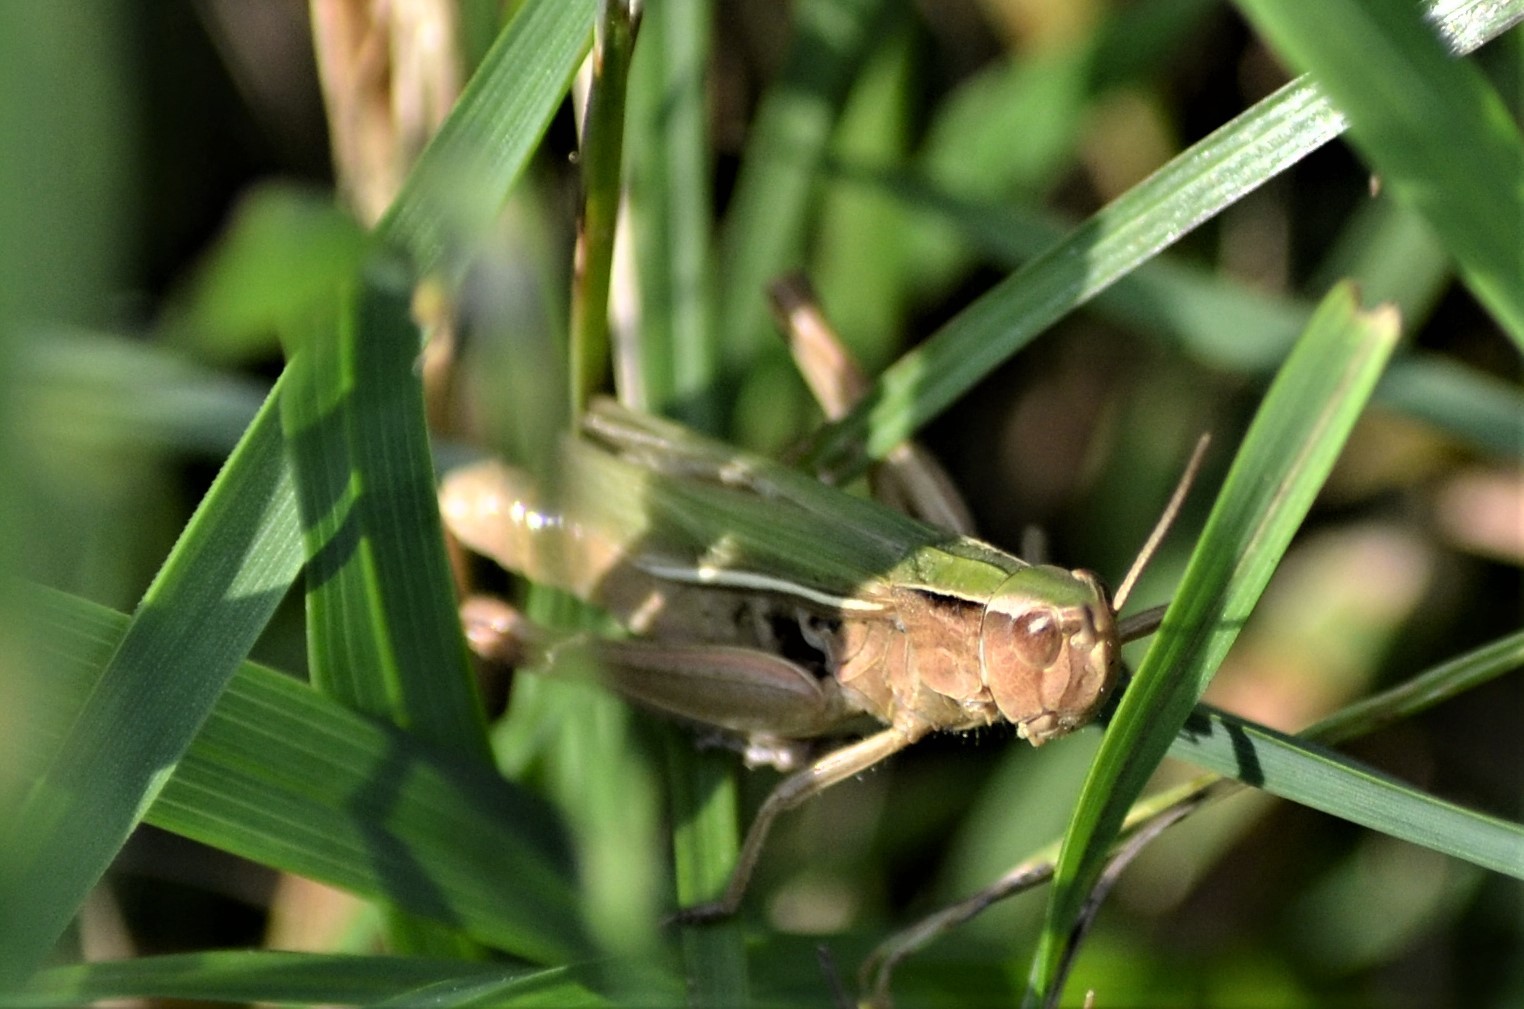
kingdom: Animalia
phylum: Arthropoda
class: Insecta
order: Orthoptera
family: Acrididae
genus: Chorthippus
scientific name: Chorthippus albomarginatus
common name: Lesser marsh grasshopper
